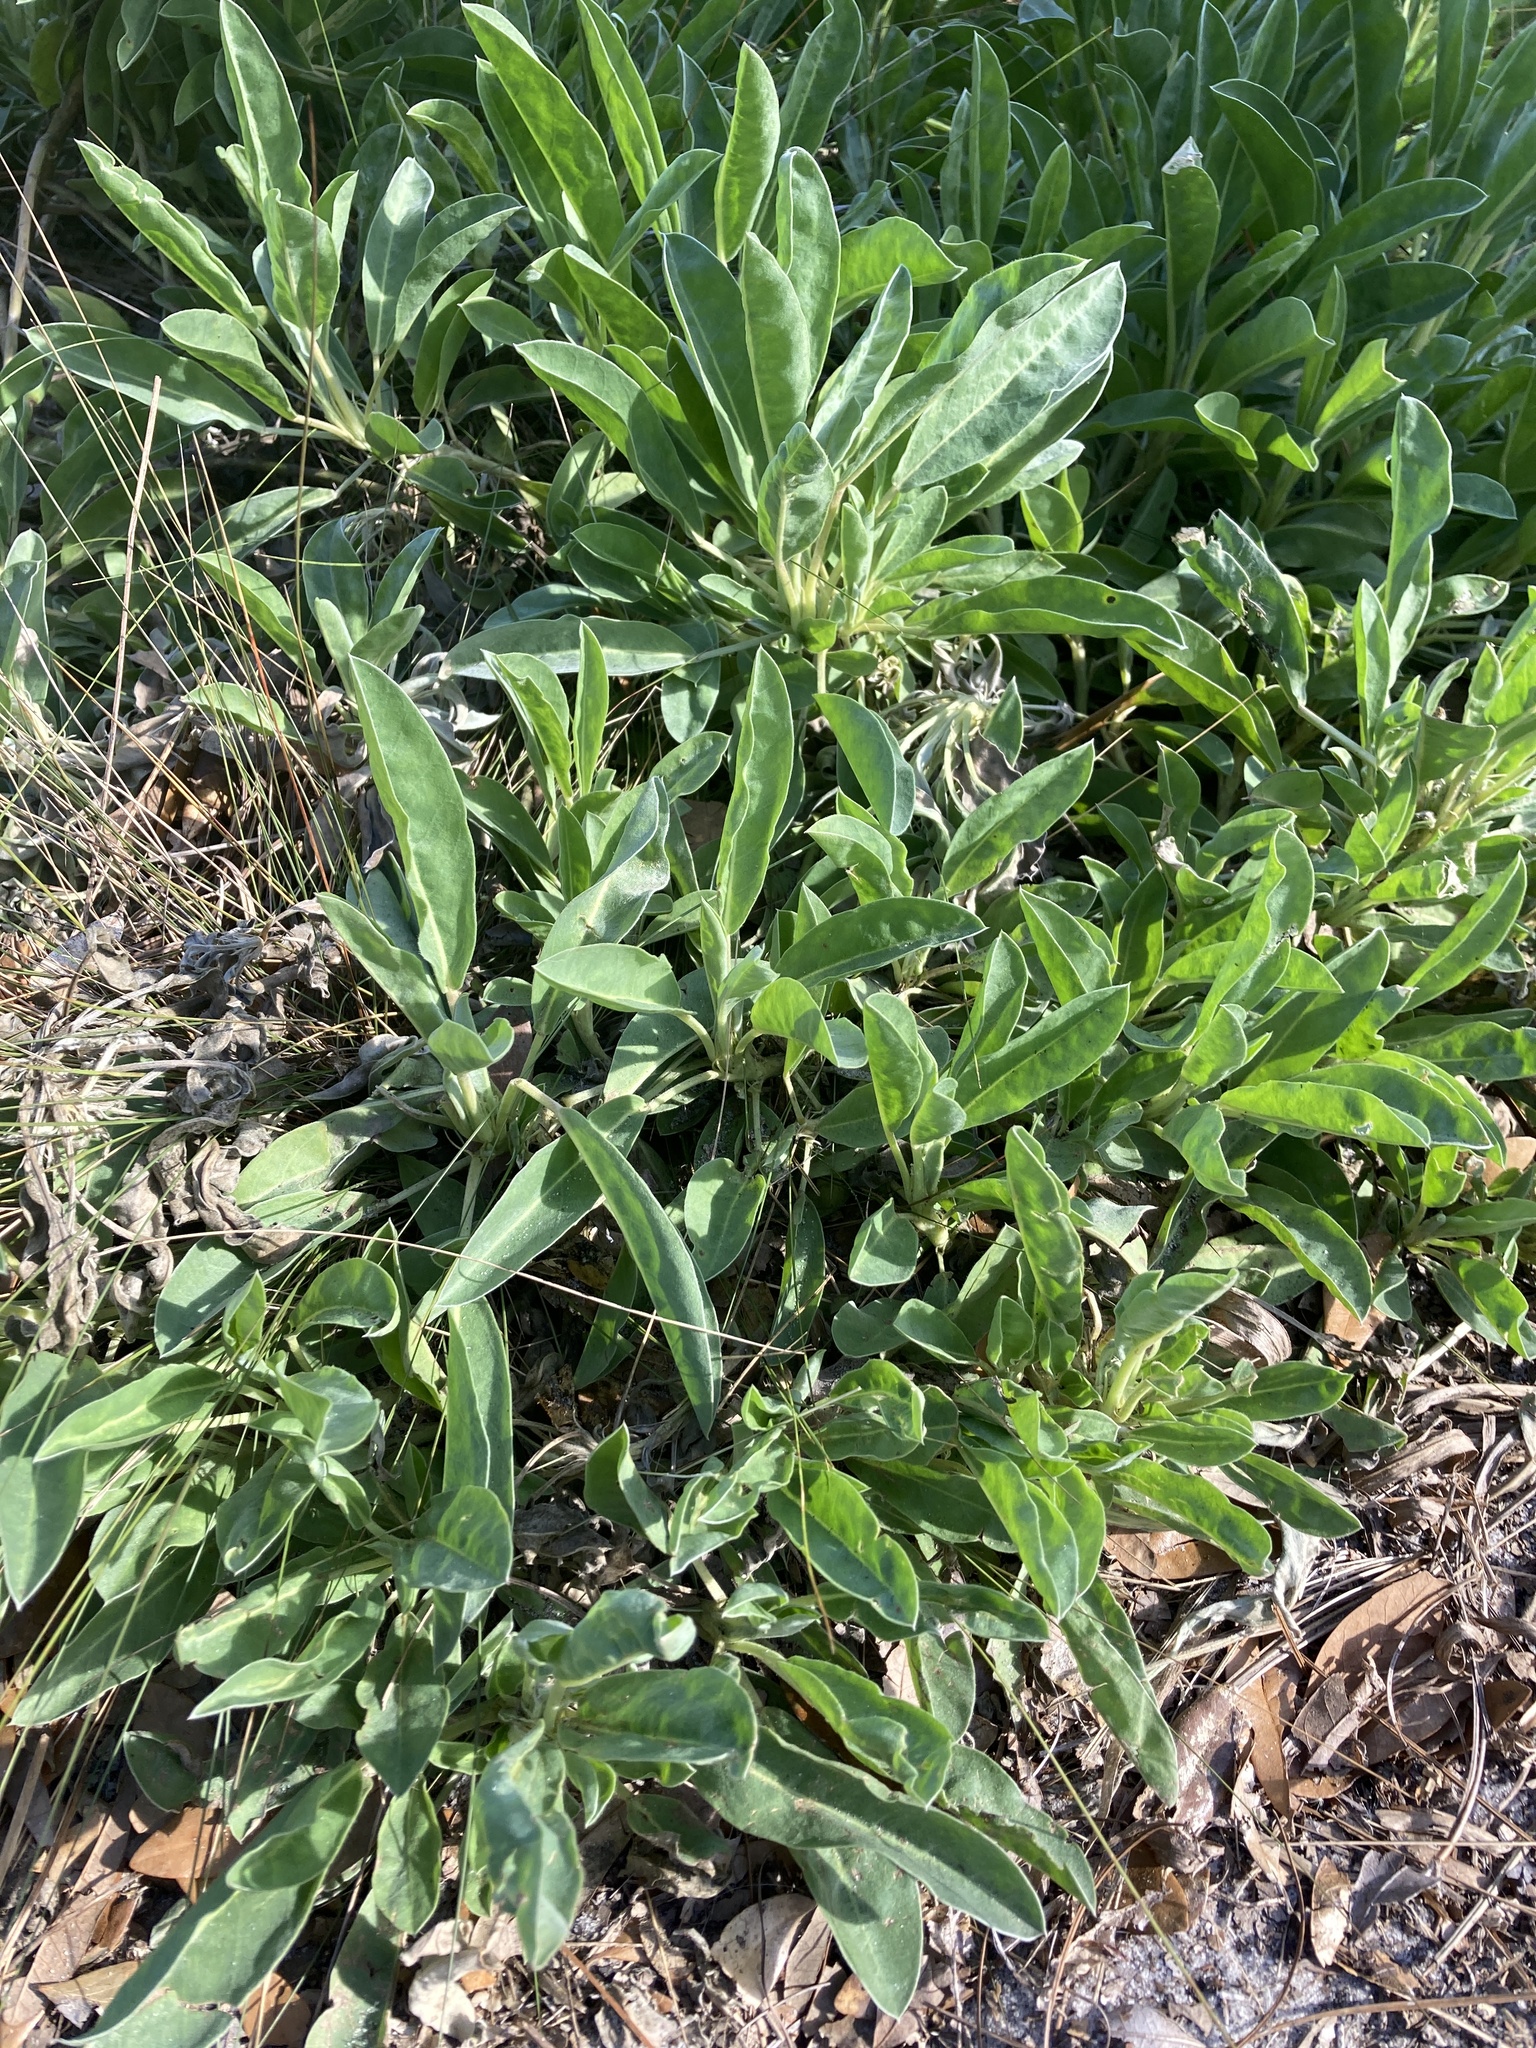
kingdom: Plantae
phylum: Tracheophyta
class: Magnoliopsida
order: Fabales
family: Fabaceae
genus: Lupinus
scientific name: Lupinus
